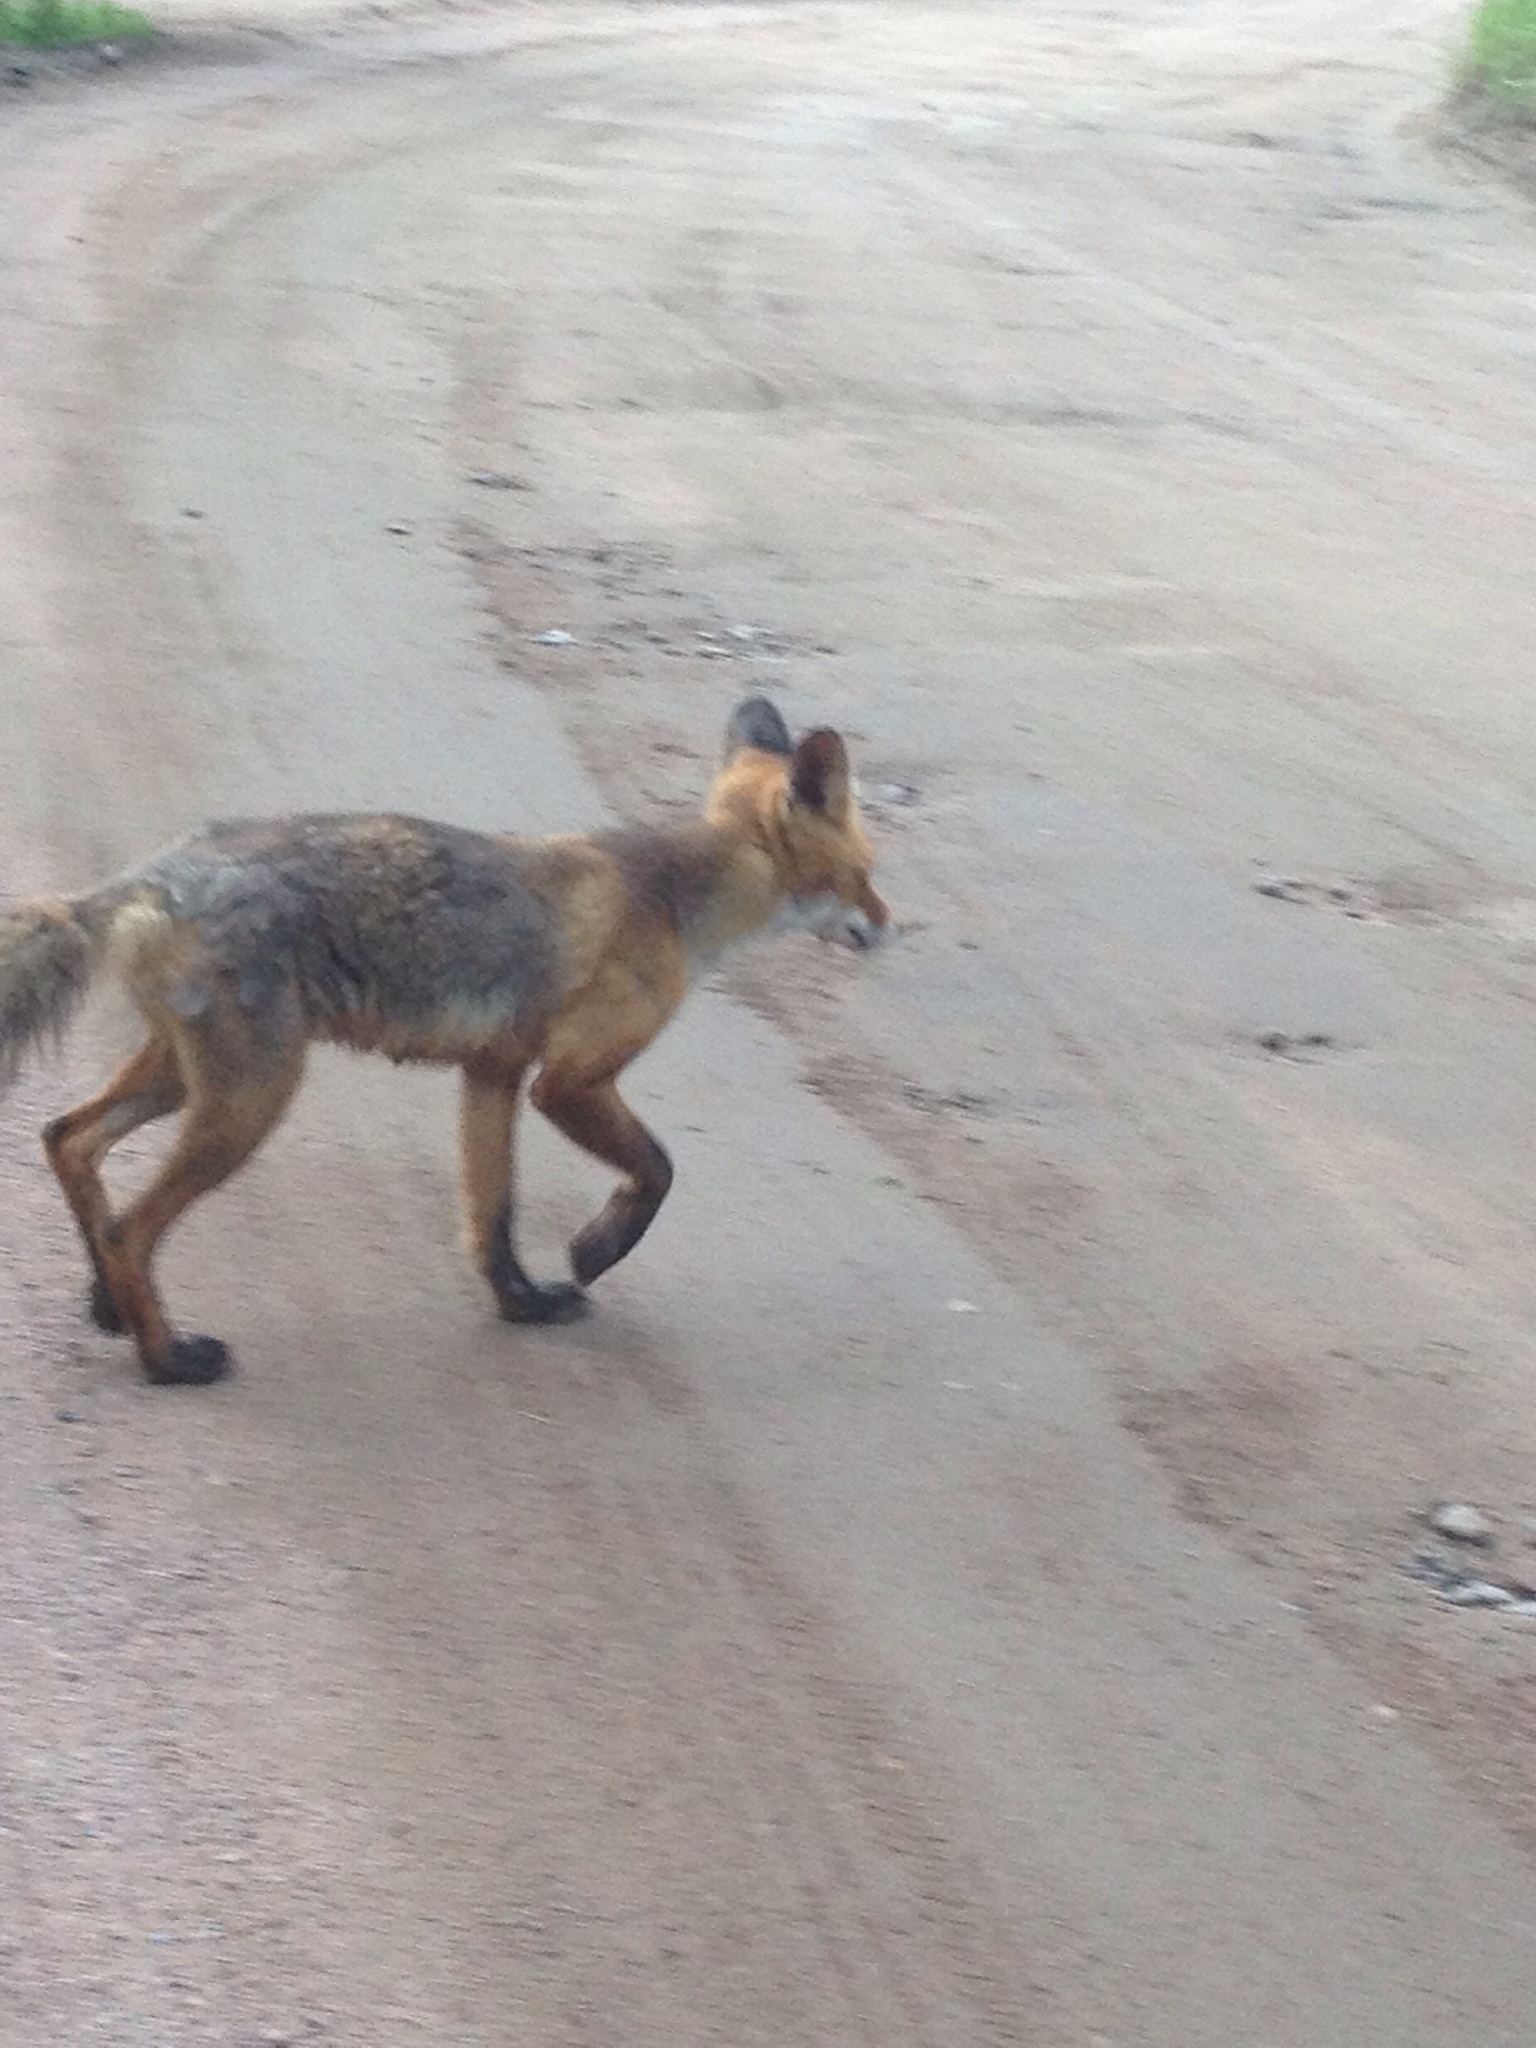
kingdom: Animalia
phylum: Chordata
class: Mammalia
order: Carnivora
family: Canidae
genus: Vulpes
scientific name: Vulpes vulpes
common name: Red fox
